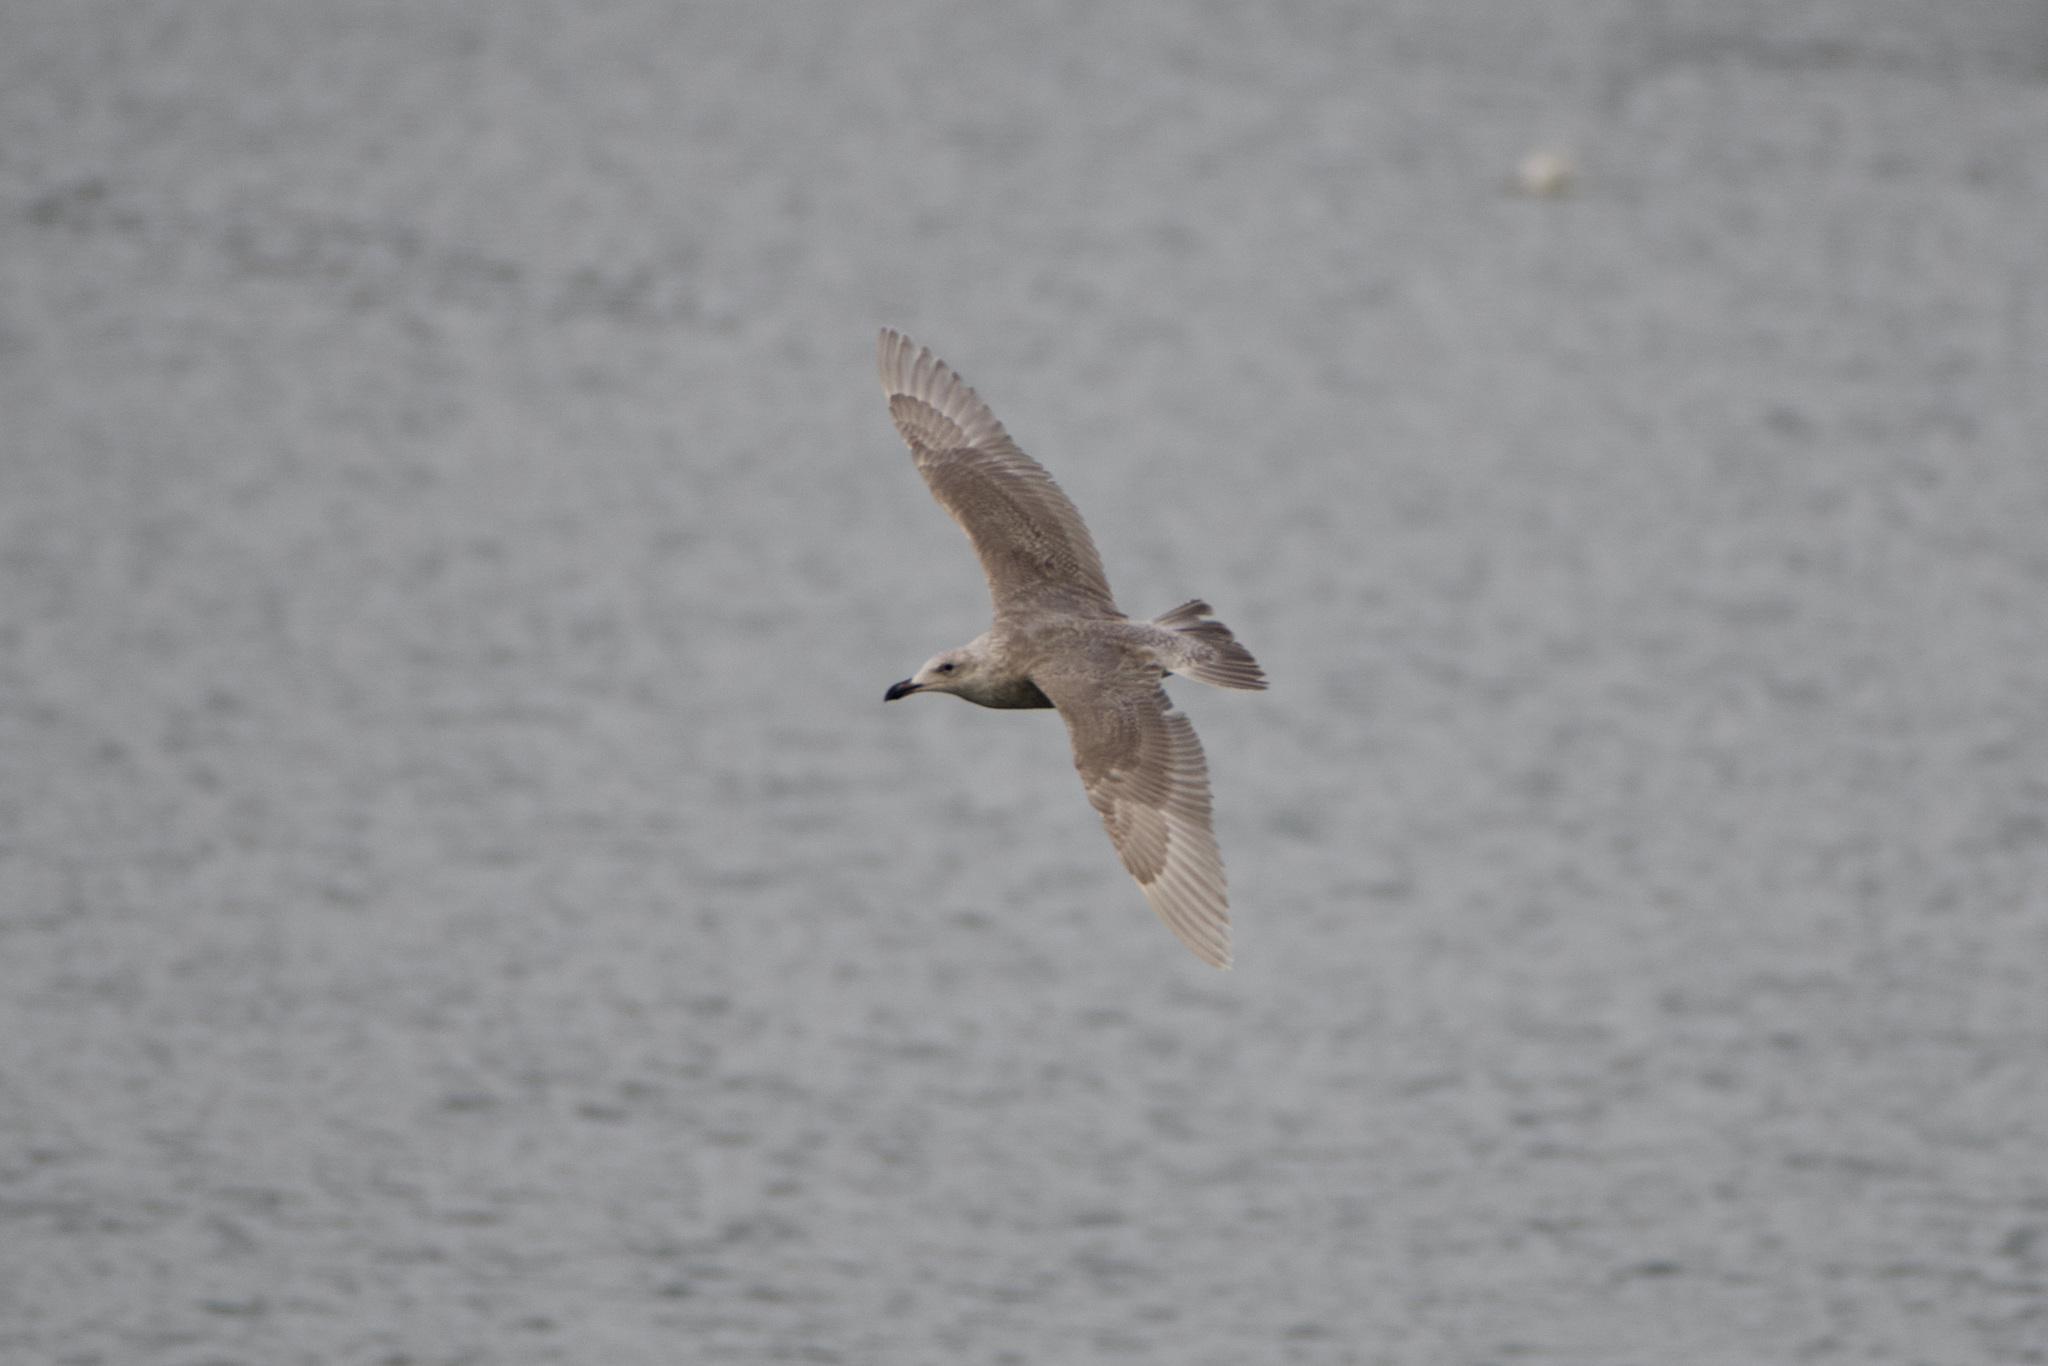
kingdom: Animalia
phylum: Chordata
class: Aves
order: Charadriiformes
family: Laridae
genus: Larus
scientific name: Larus glaucescens
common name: Glaucous-winged gull
